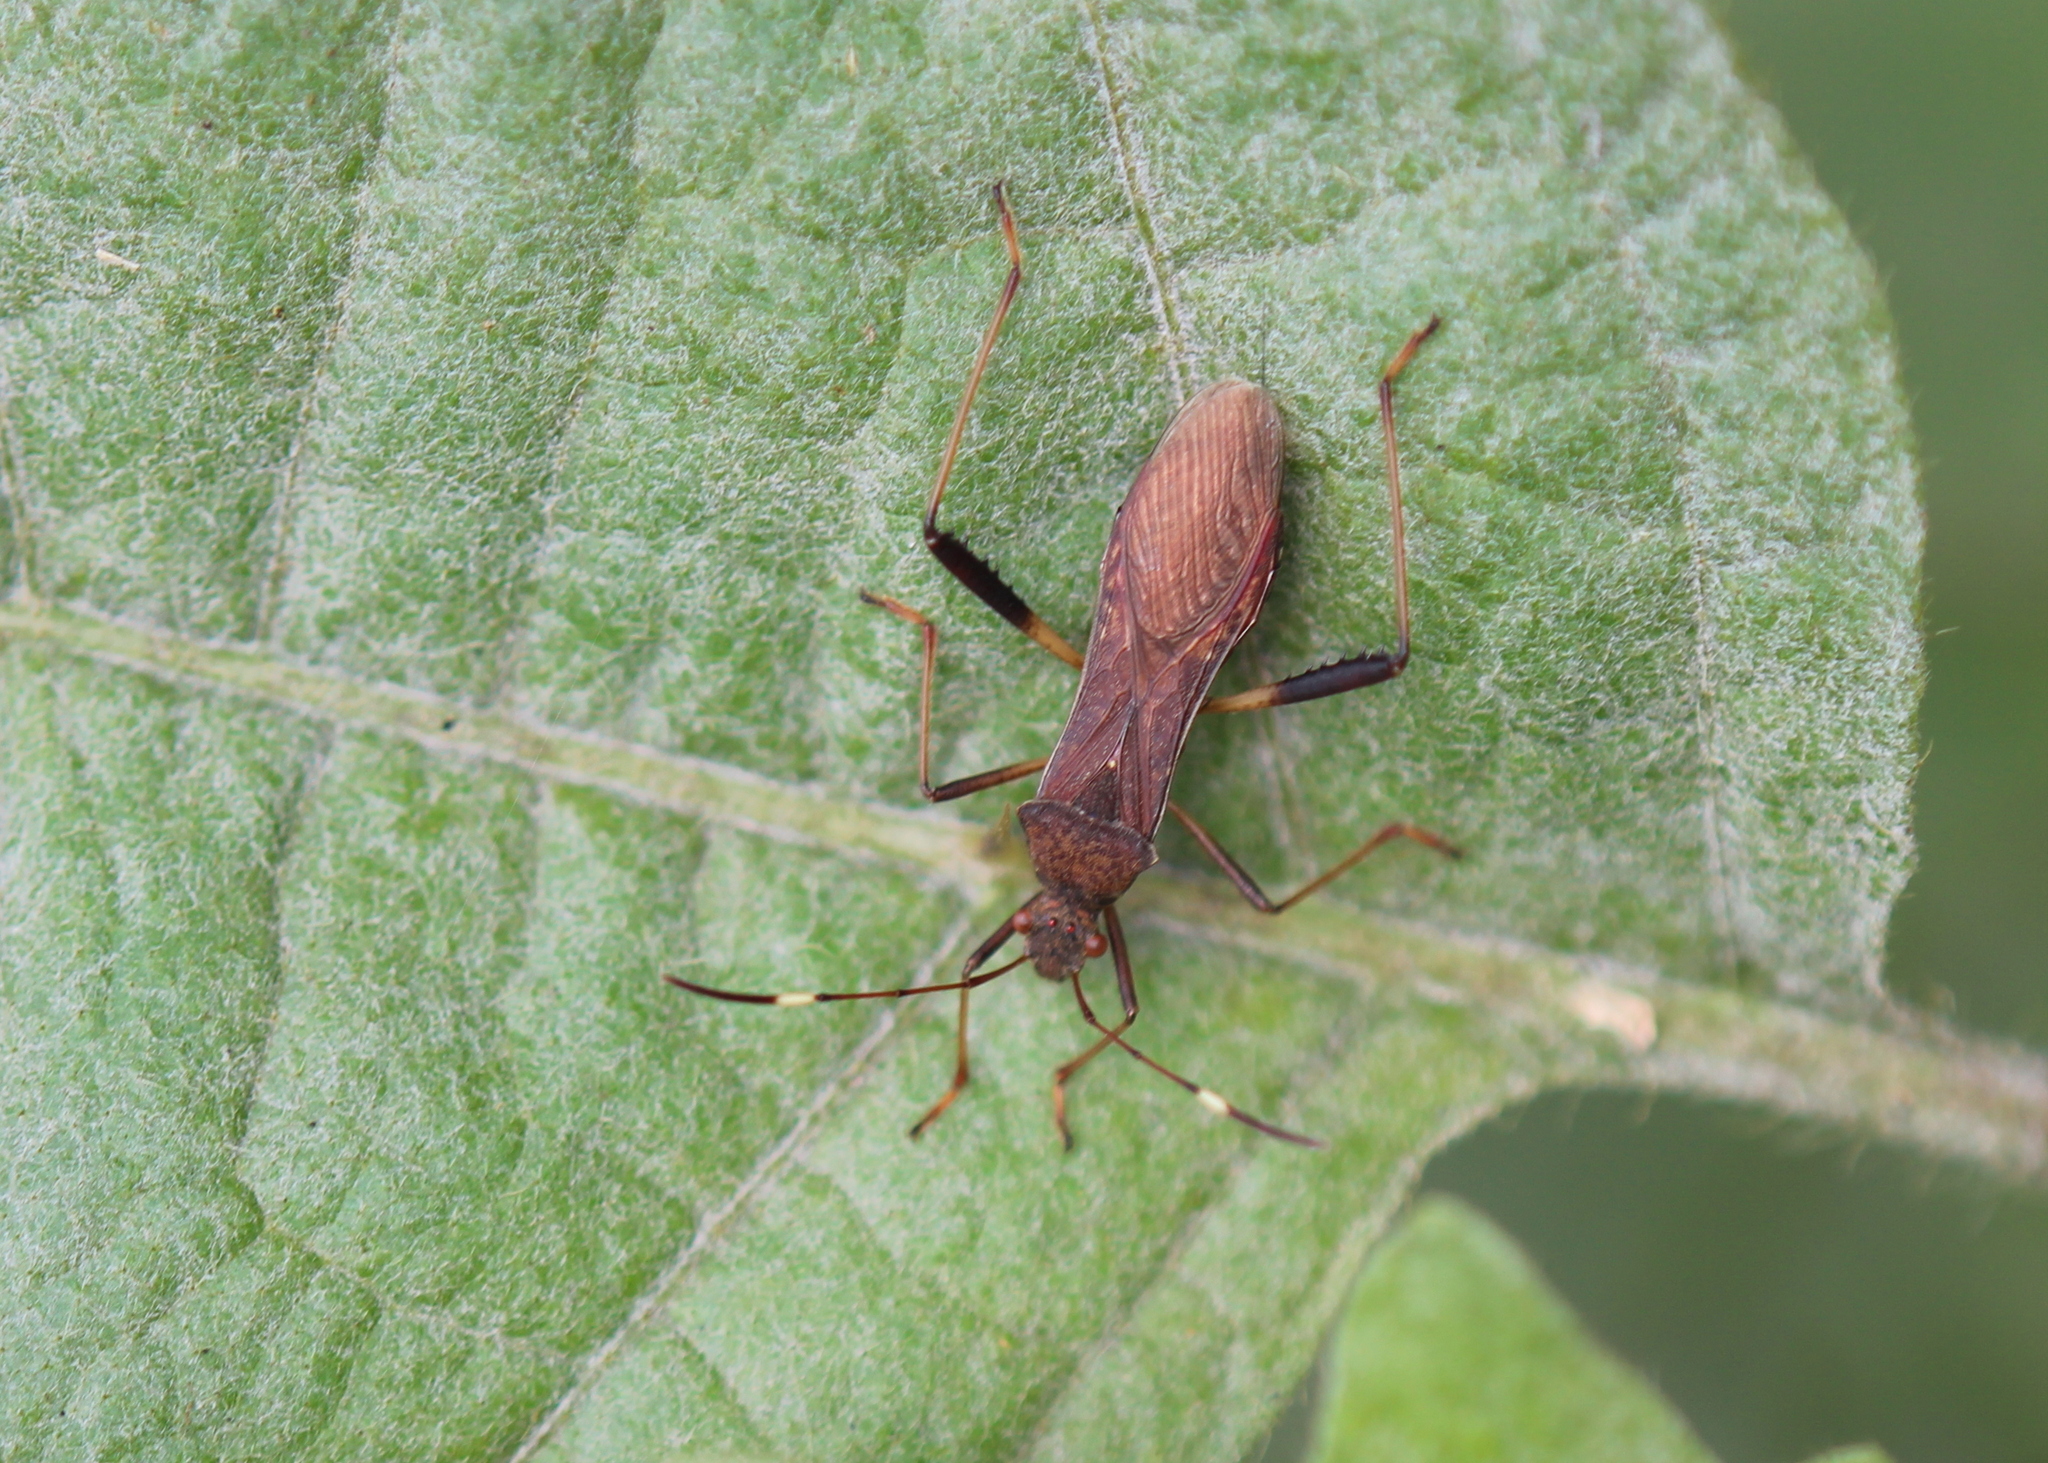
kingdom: Animalia
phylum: Arthropoda
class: Insecta
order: Hemiptera
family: Alydidae
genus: Megalotomus
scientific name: Megalotomus quinquespinosus
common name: Lupine bug
